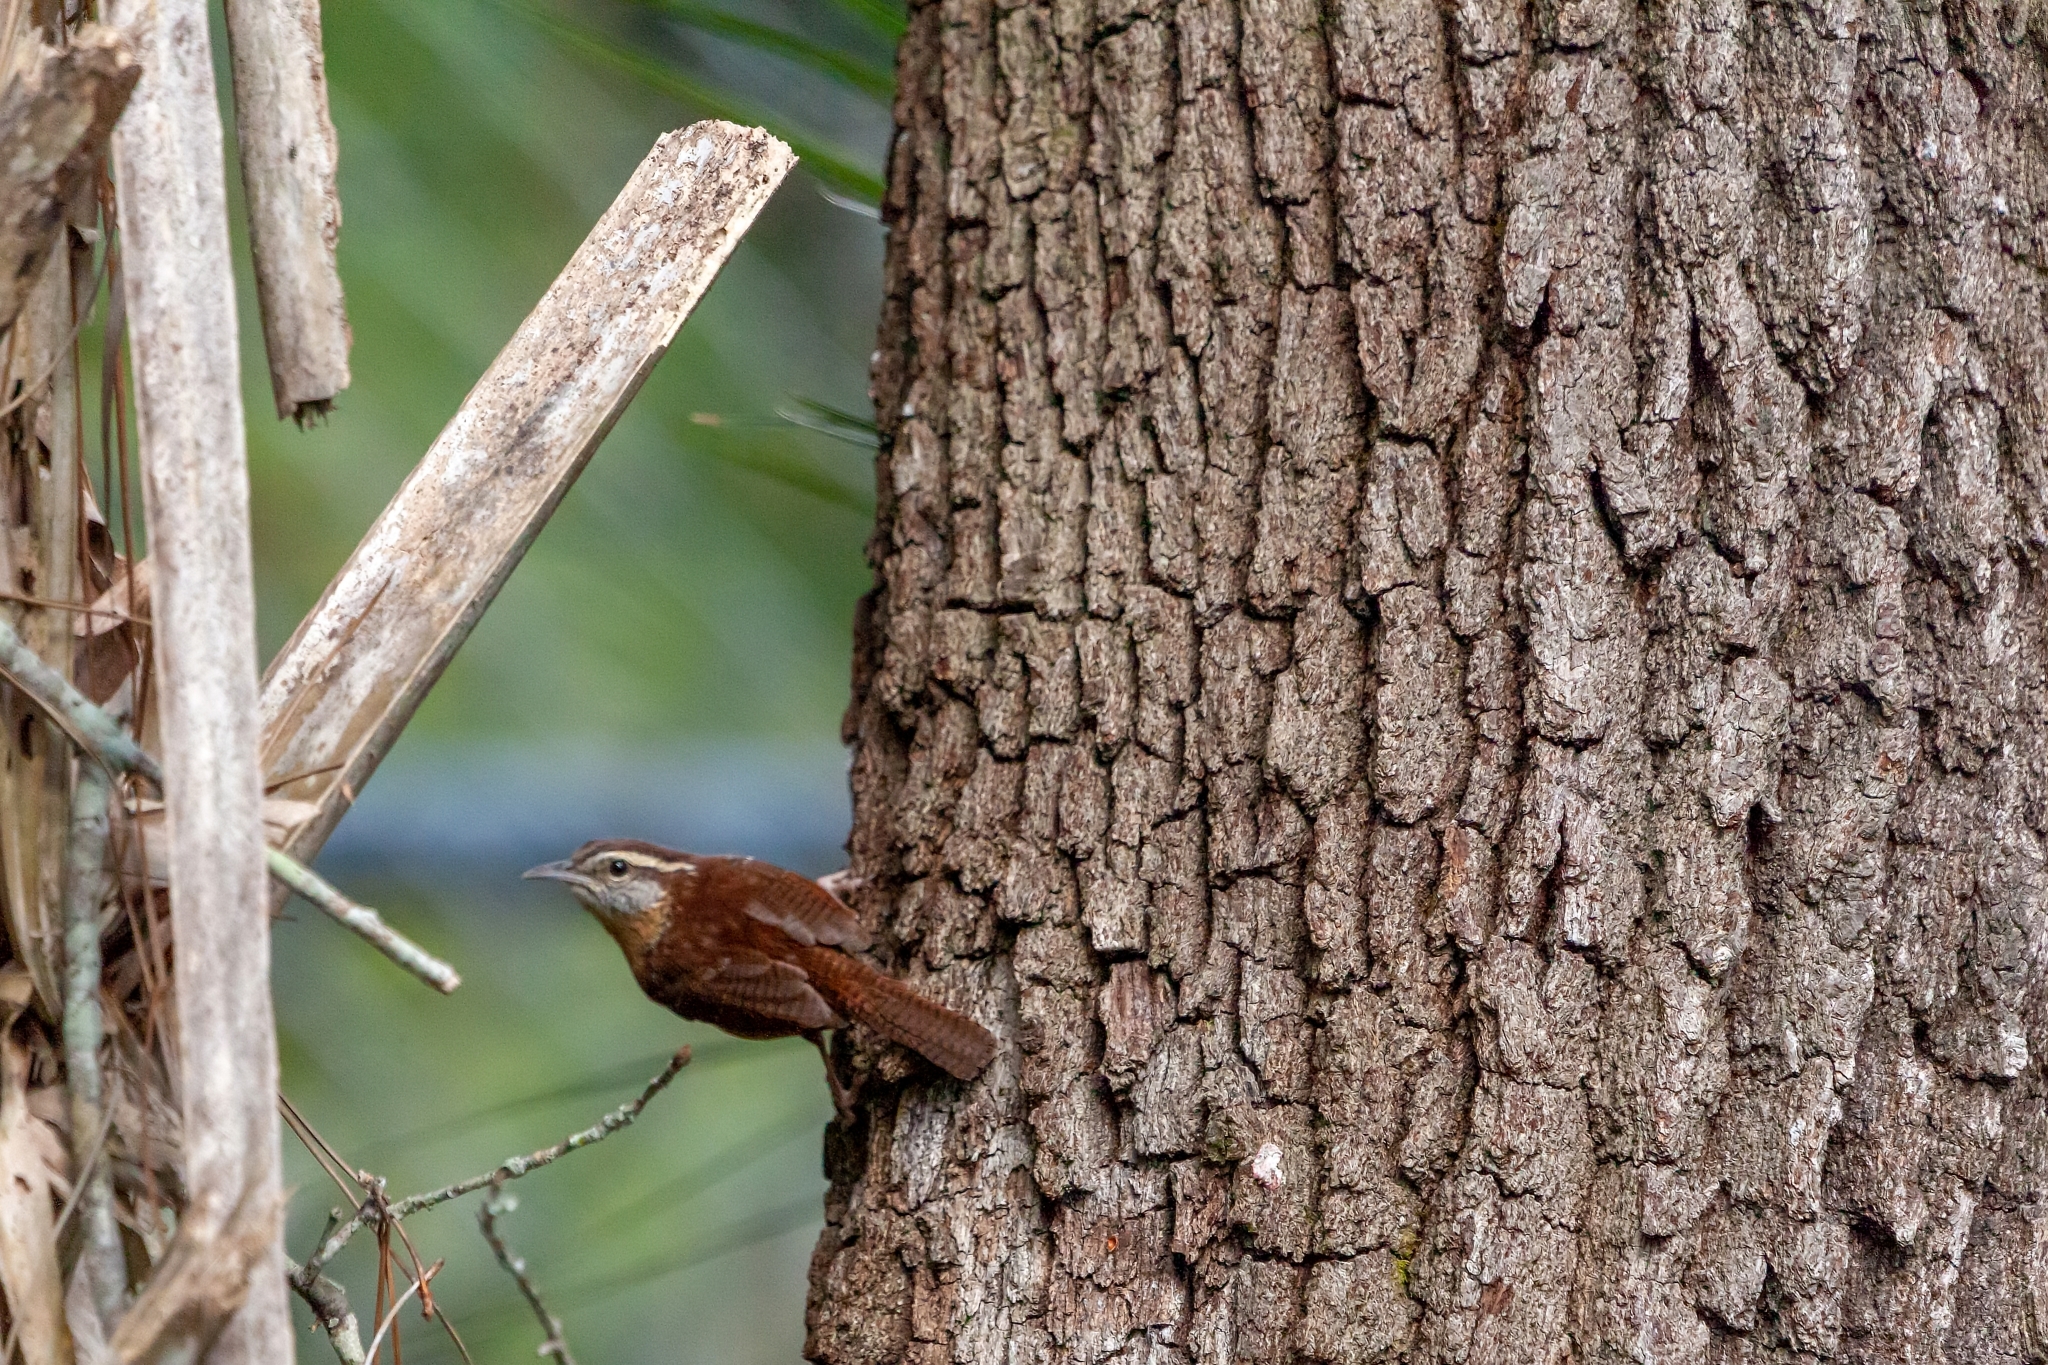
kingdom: Animalia
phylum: Chordata
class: Aves
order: Passeriformes
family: Troglodytidae
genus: Thryothorus
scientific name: Thryothorus ludovicianus
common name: Carolina wren
